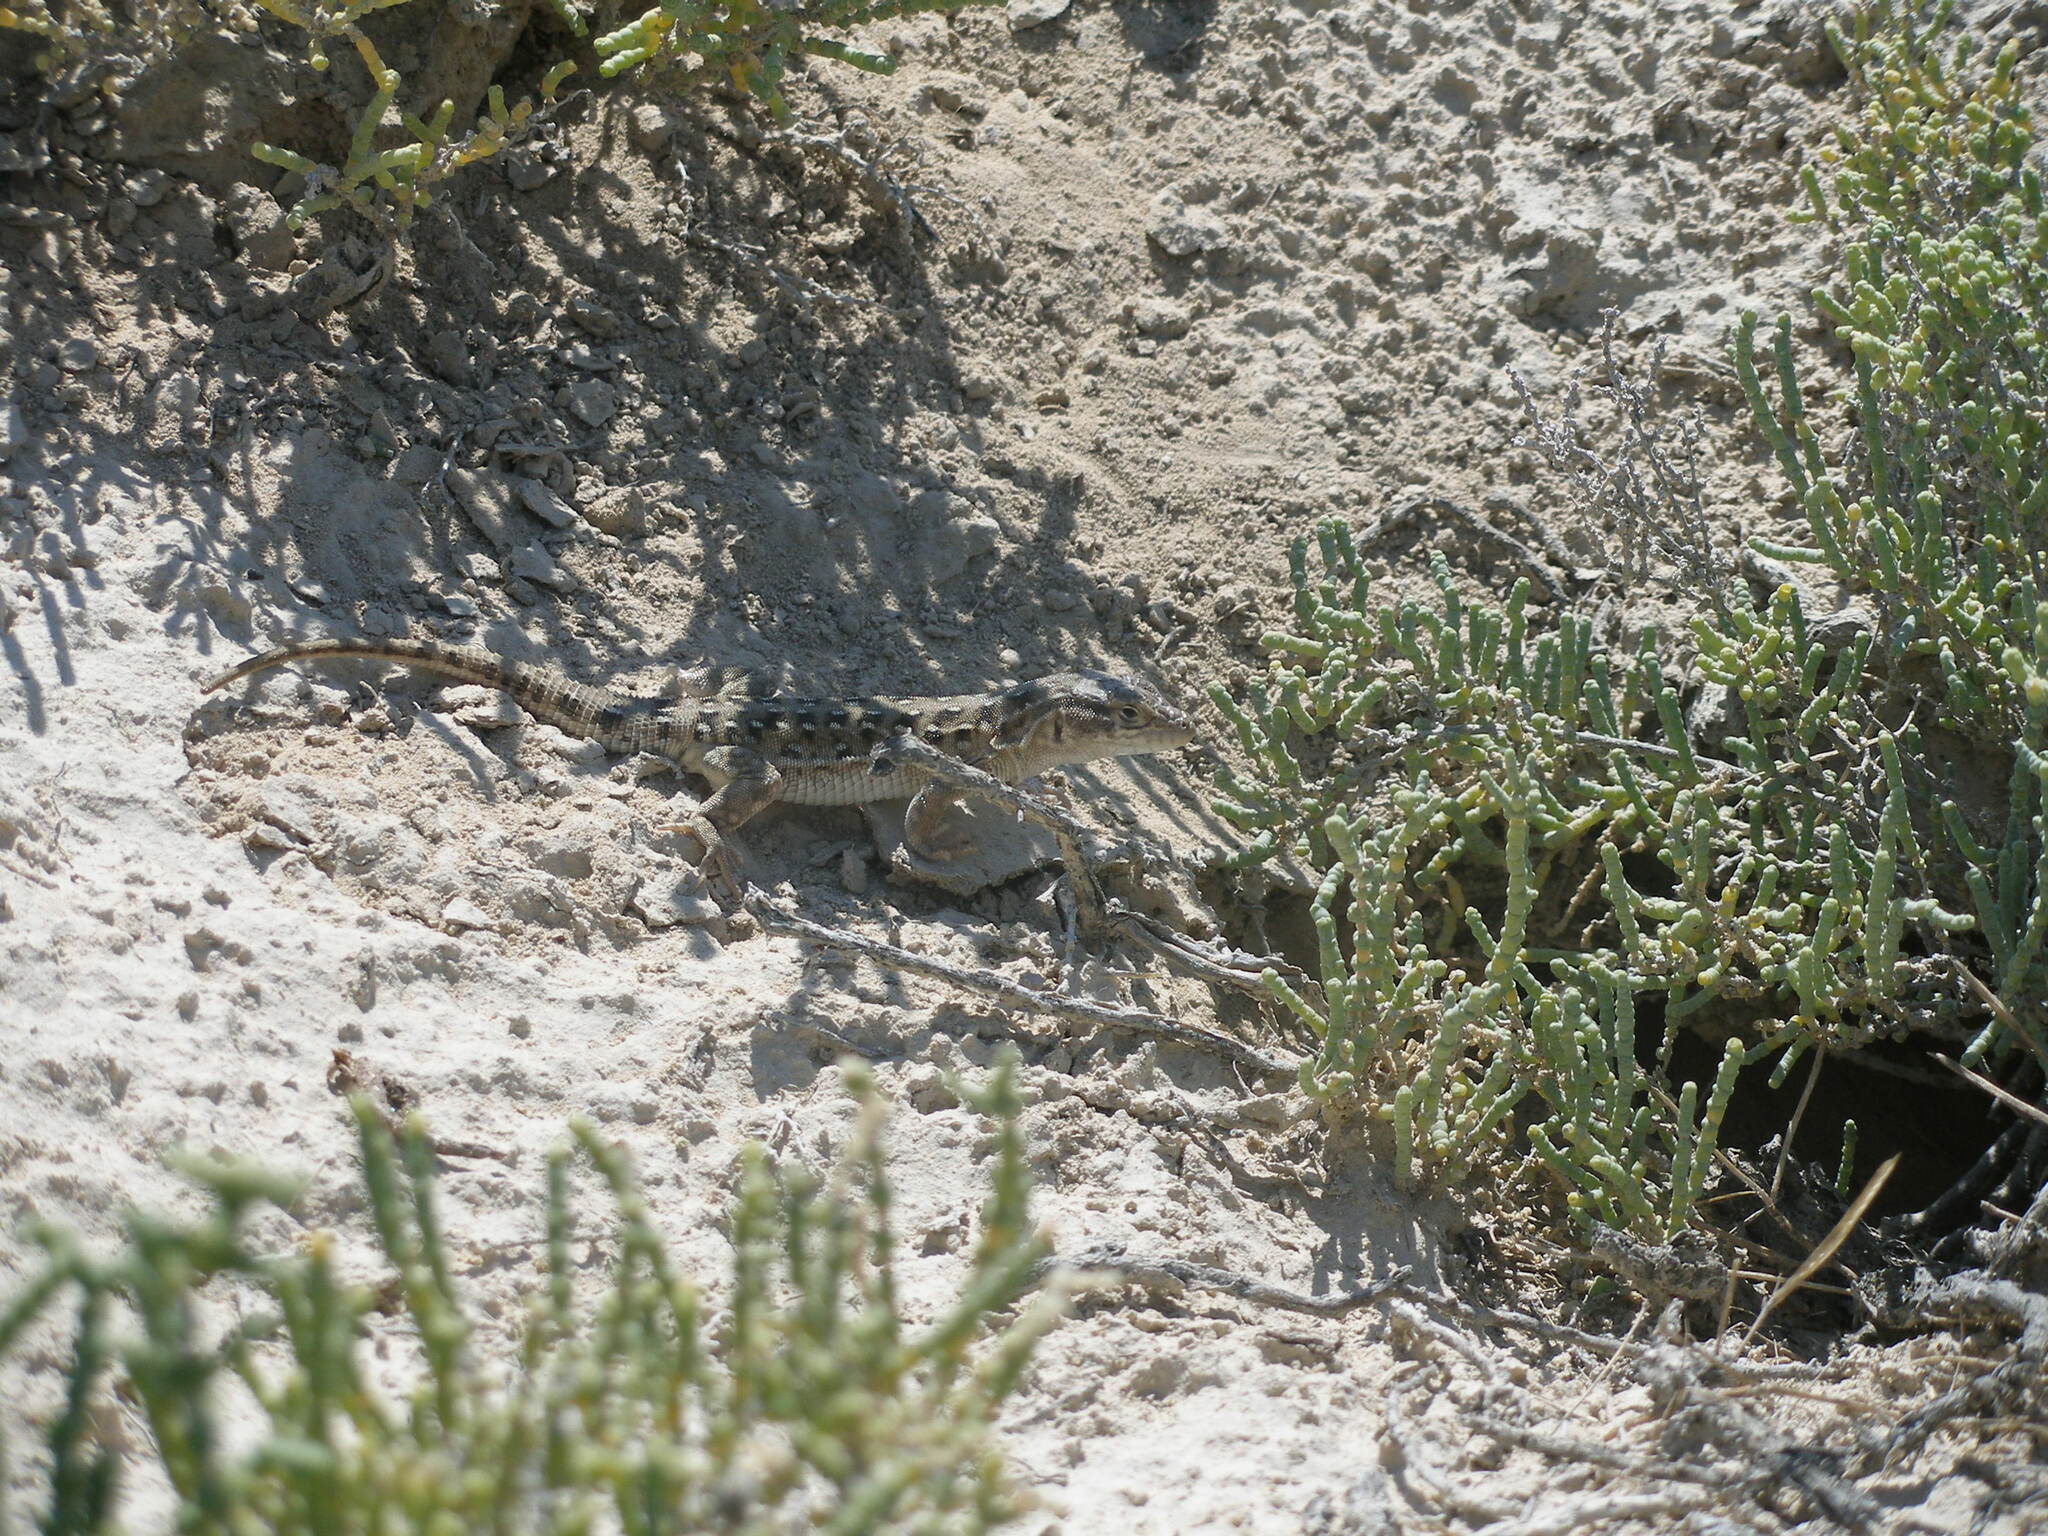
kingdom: Animalia
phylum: Chordata
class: Squamata
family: Lacertidae
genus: Eremias
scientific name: Eremias arguta
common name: Racerunner
